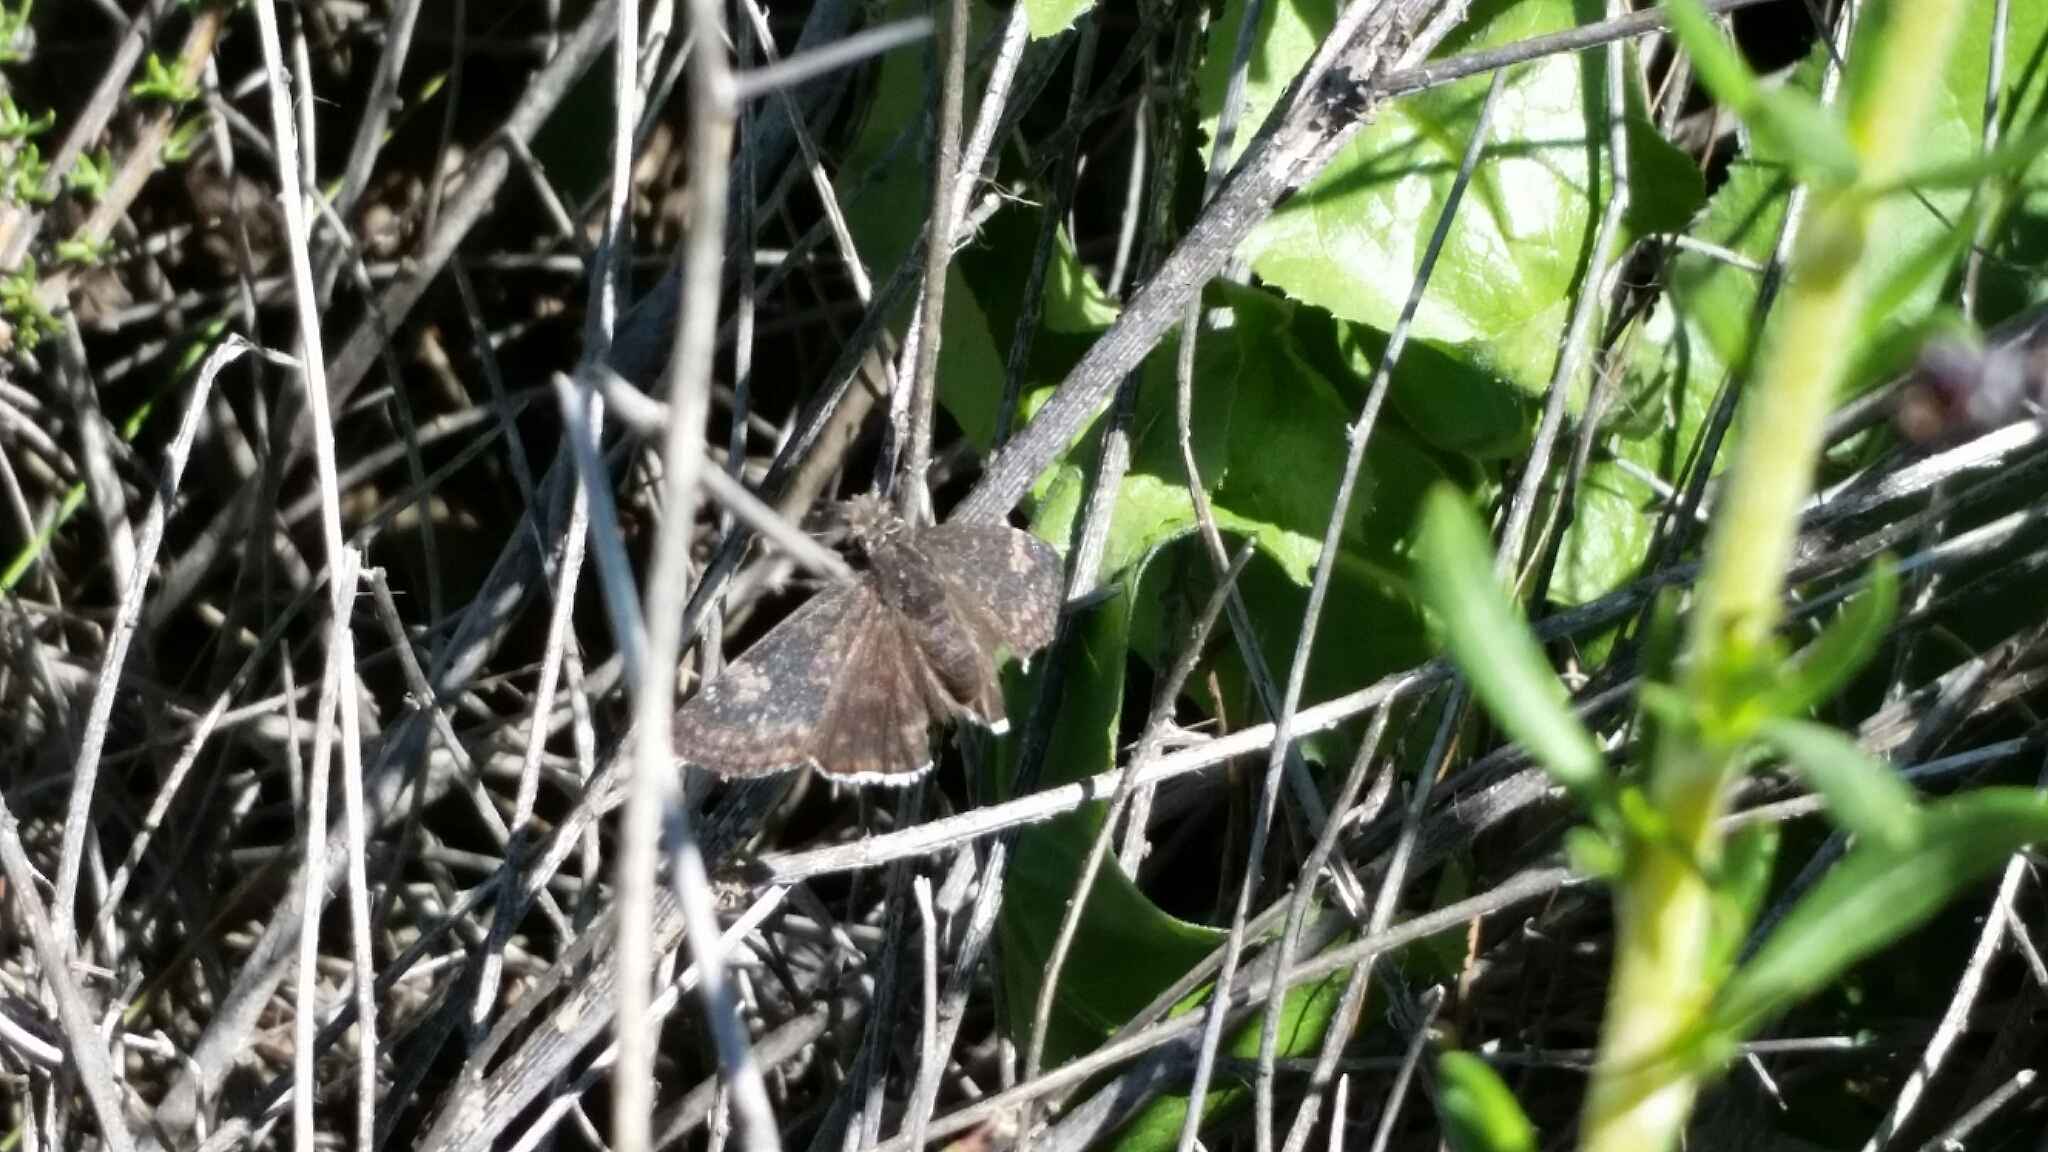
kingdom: Animalia
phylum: Arthropoda
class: Insecta
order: Lepidoptera
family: Hesperiidae
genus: Erynnis
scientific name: Erynnis funeralis
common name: Funereal duskywing
